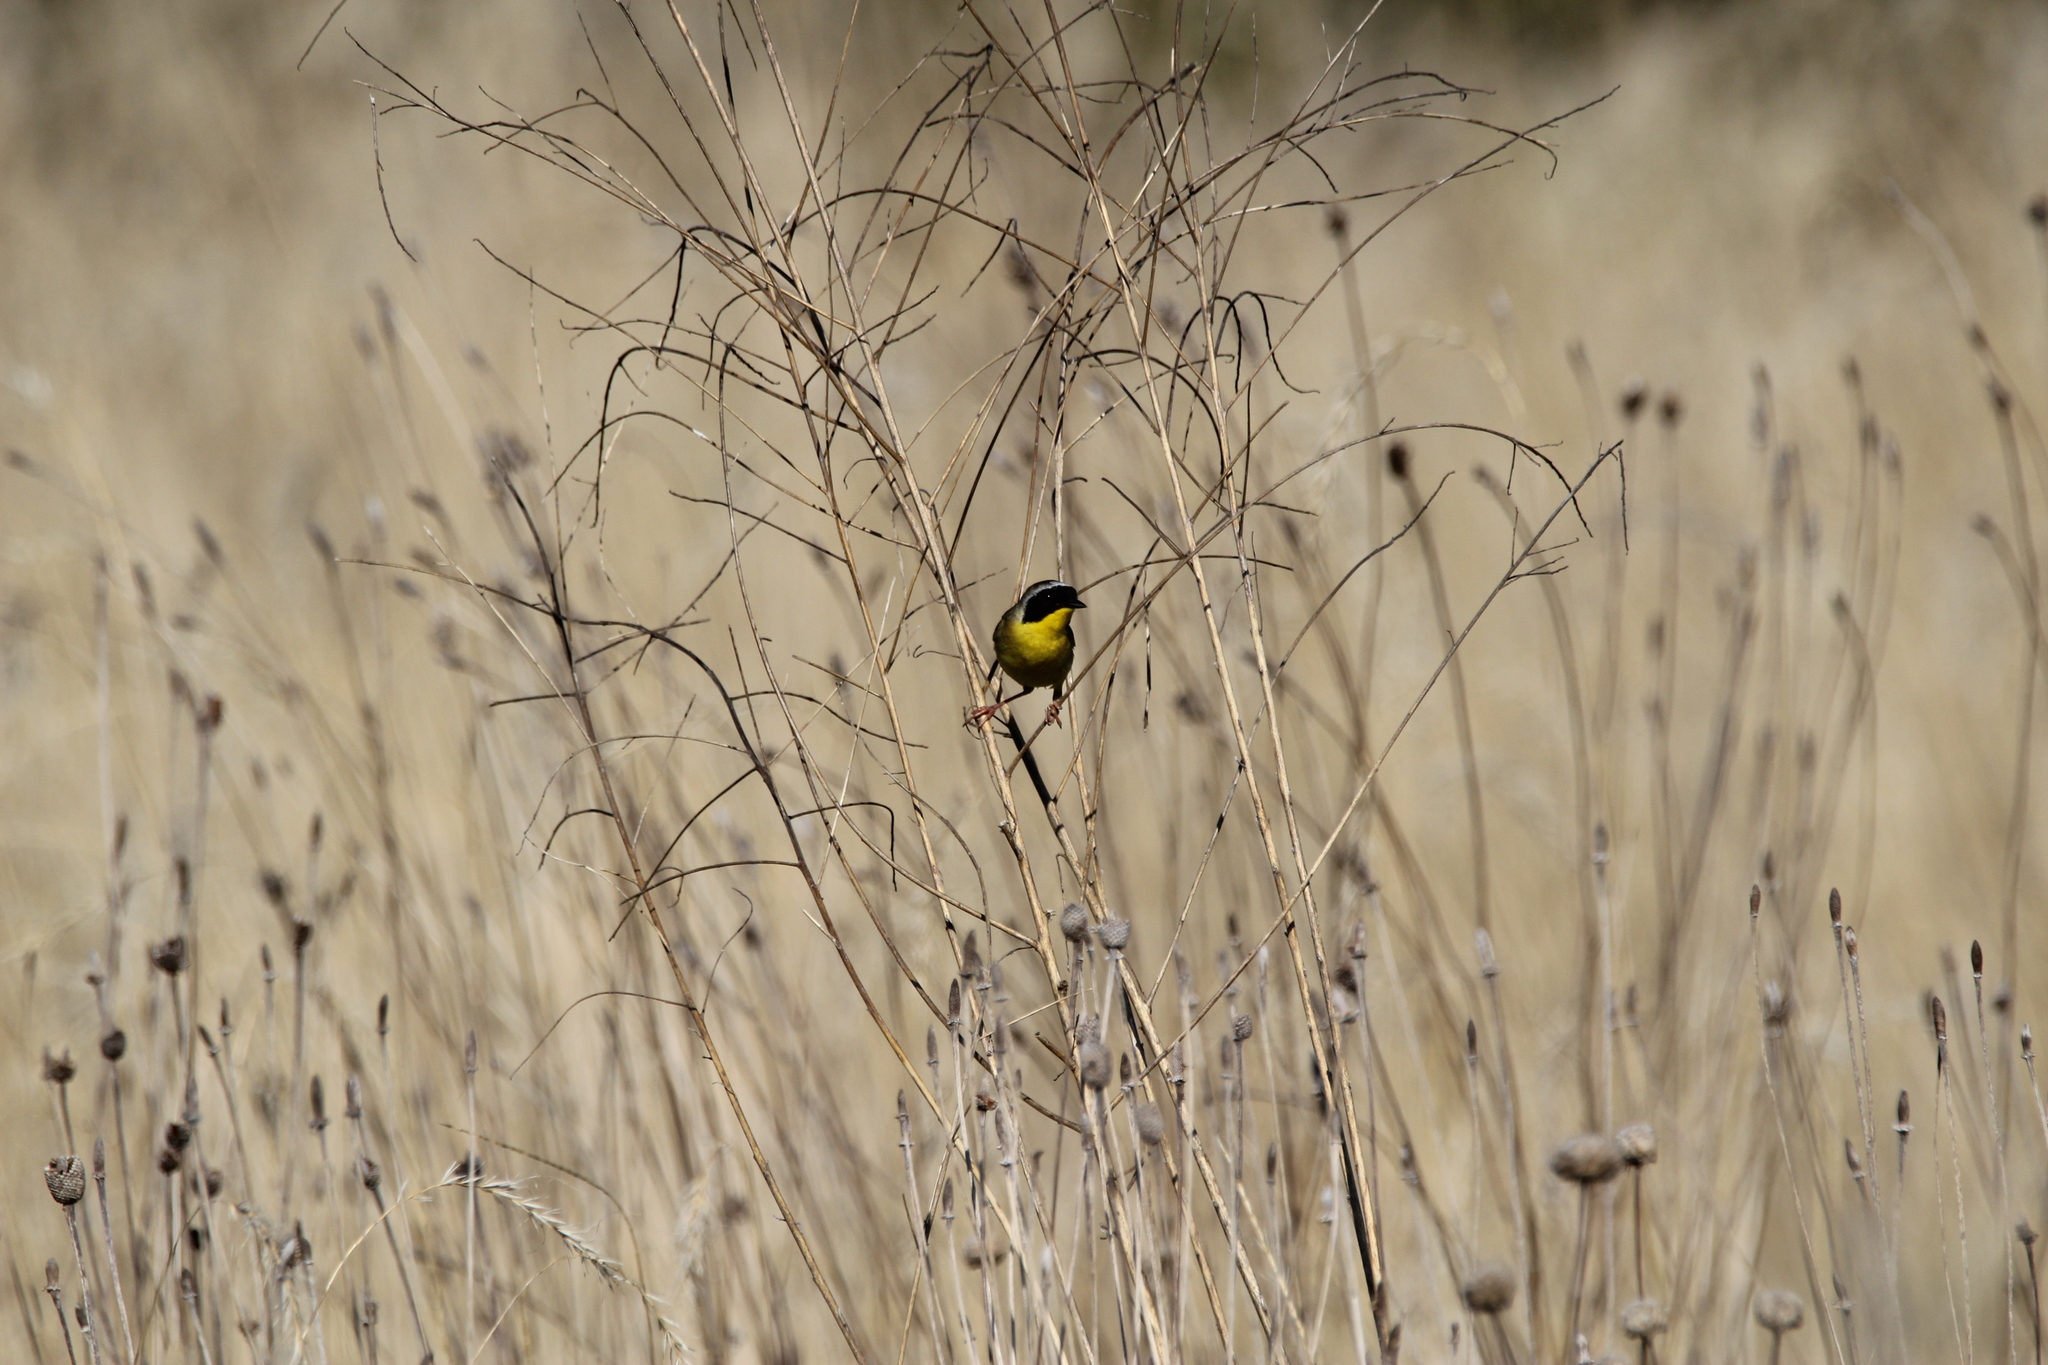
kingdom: Animalia
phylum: Chordata
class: Aves
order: Passeriformes
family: Parulidae
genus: Geothlypis
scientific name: Geothlypis trichas
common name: Common yellowthroat
